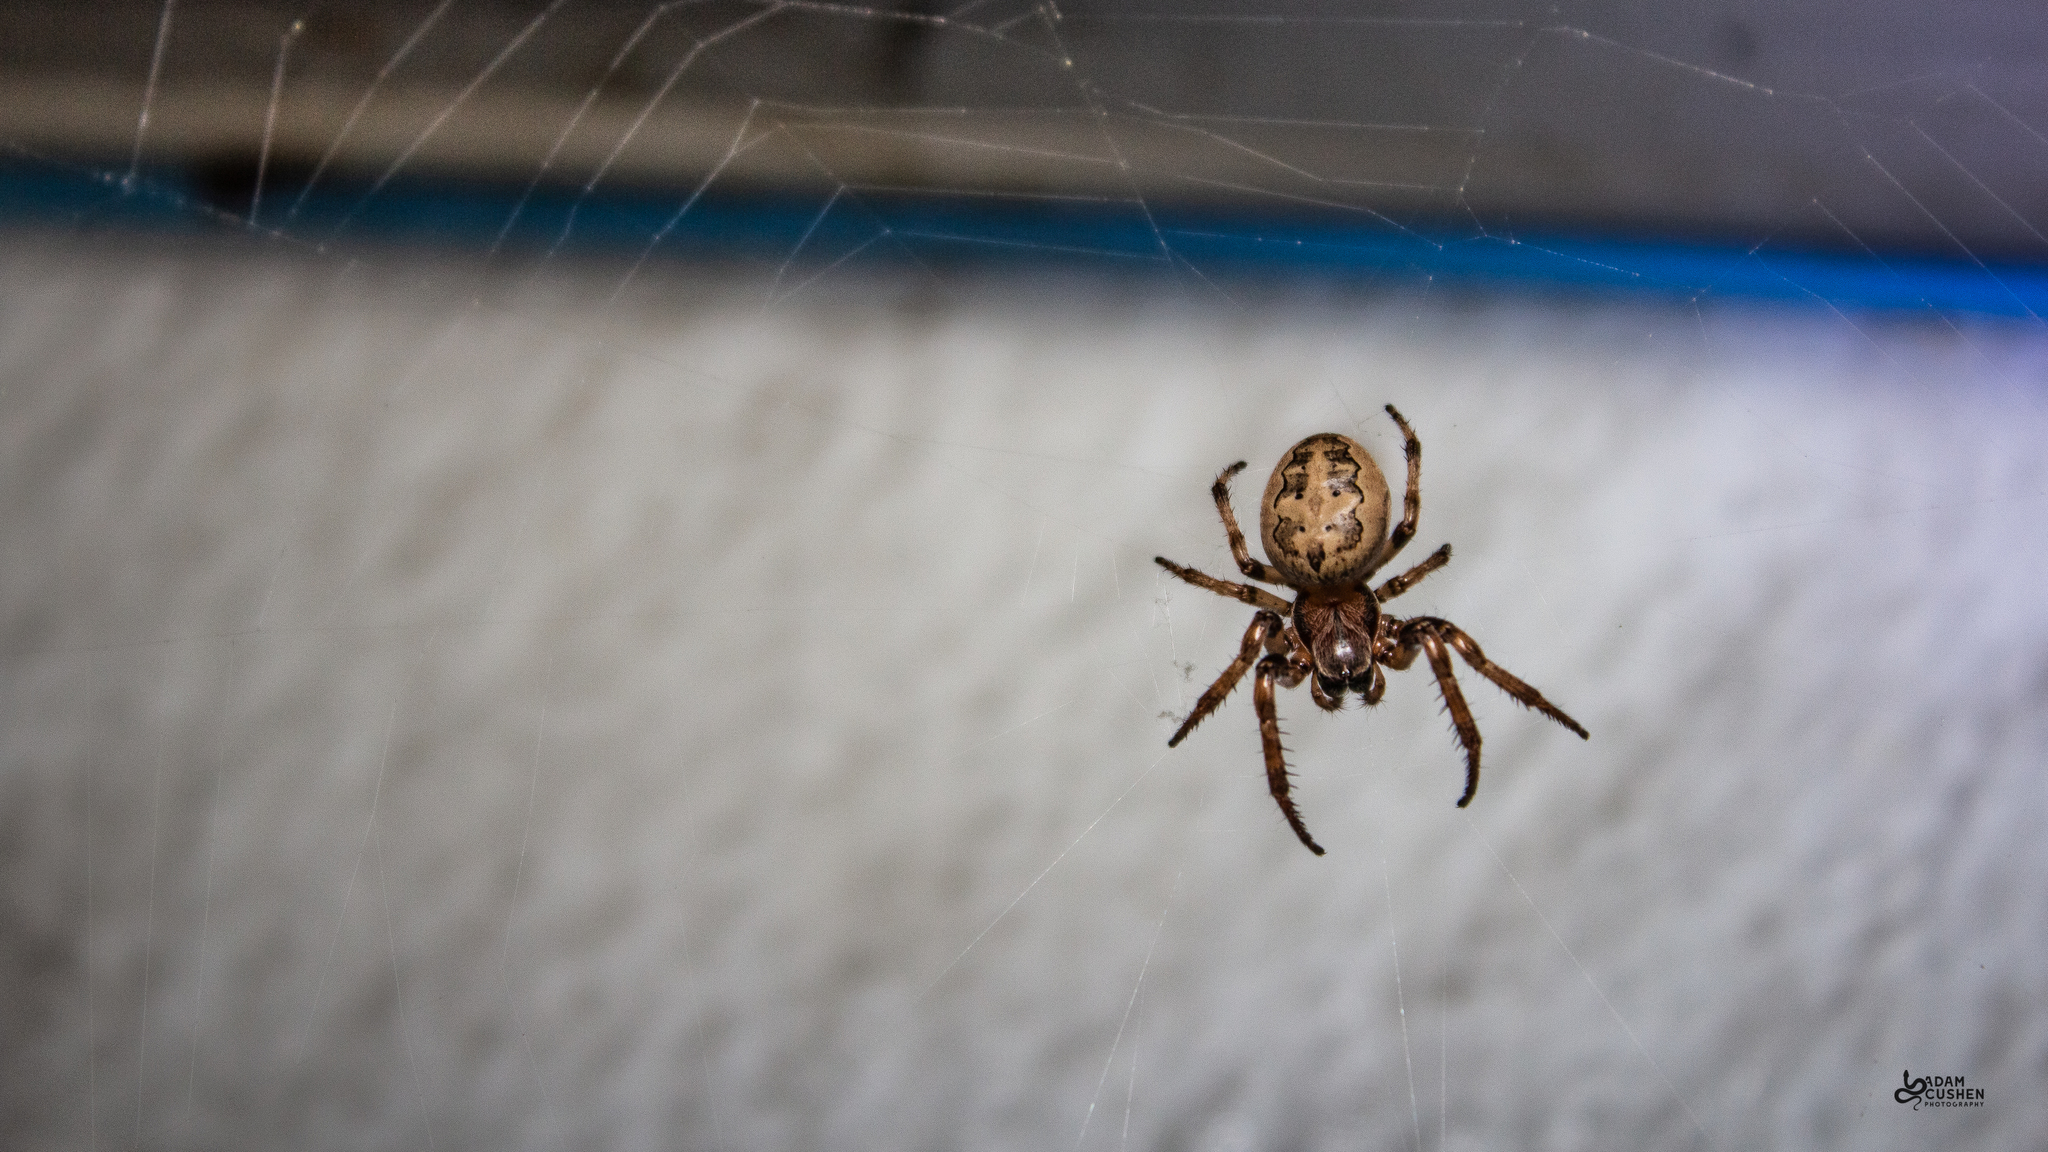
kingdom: Animalia
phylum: Arthropoda
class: Arachnida
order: Araneae
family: Araneidae
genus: Larinioides
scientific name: Larinioides cornutus
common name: Furrow orbweaver
